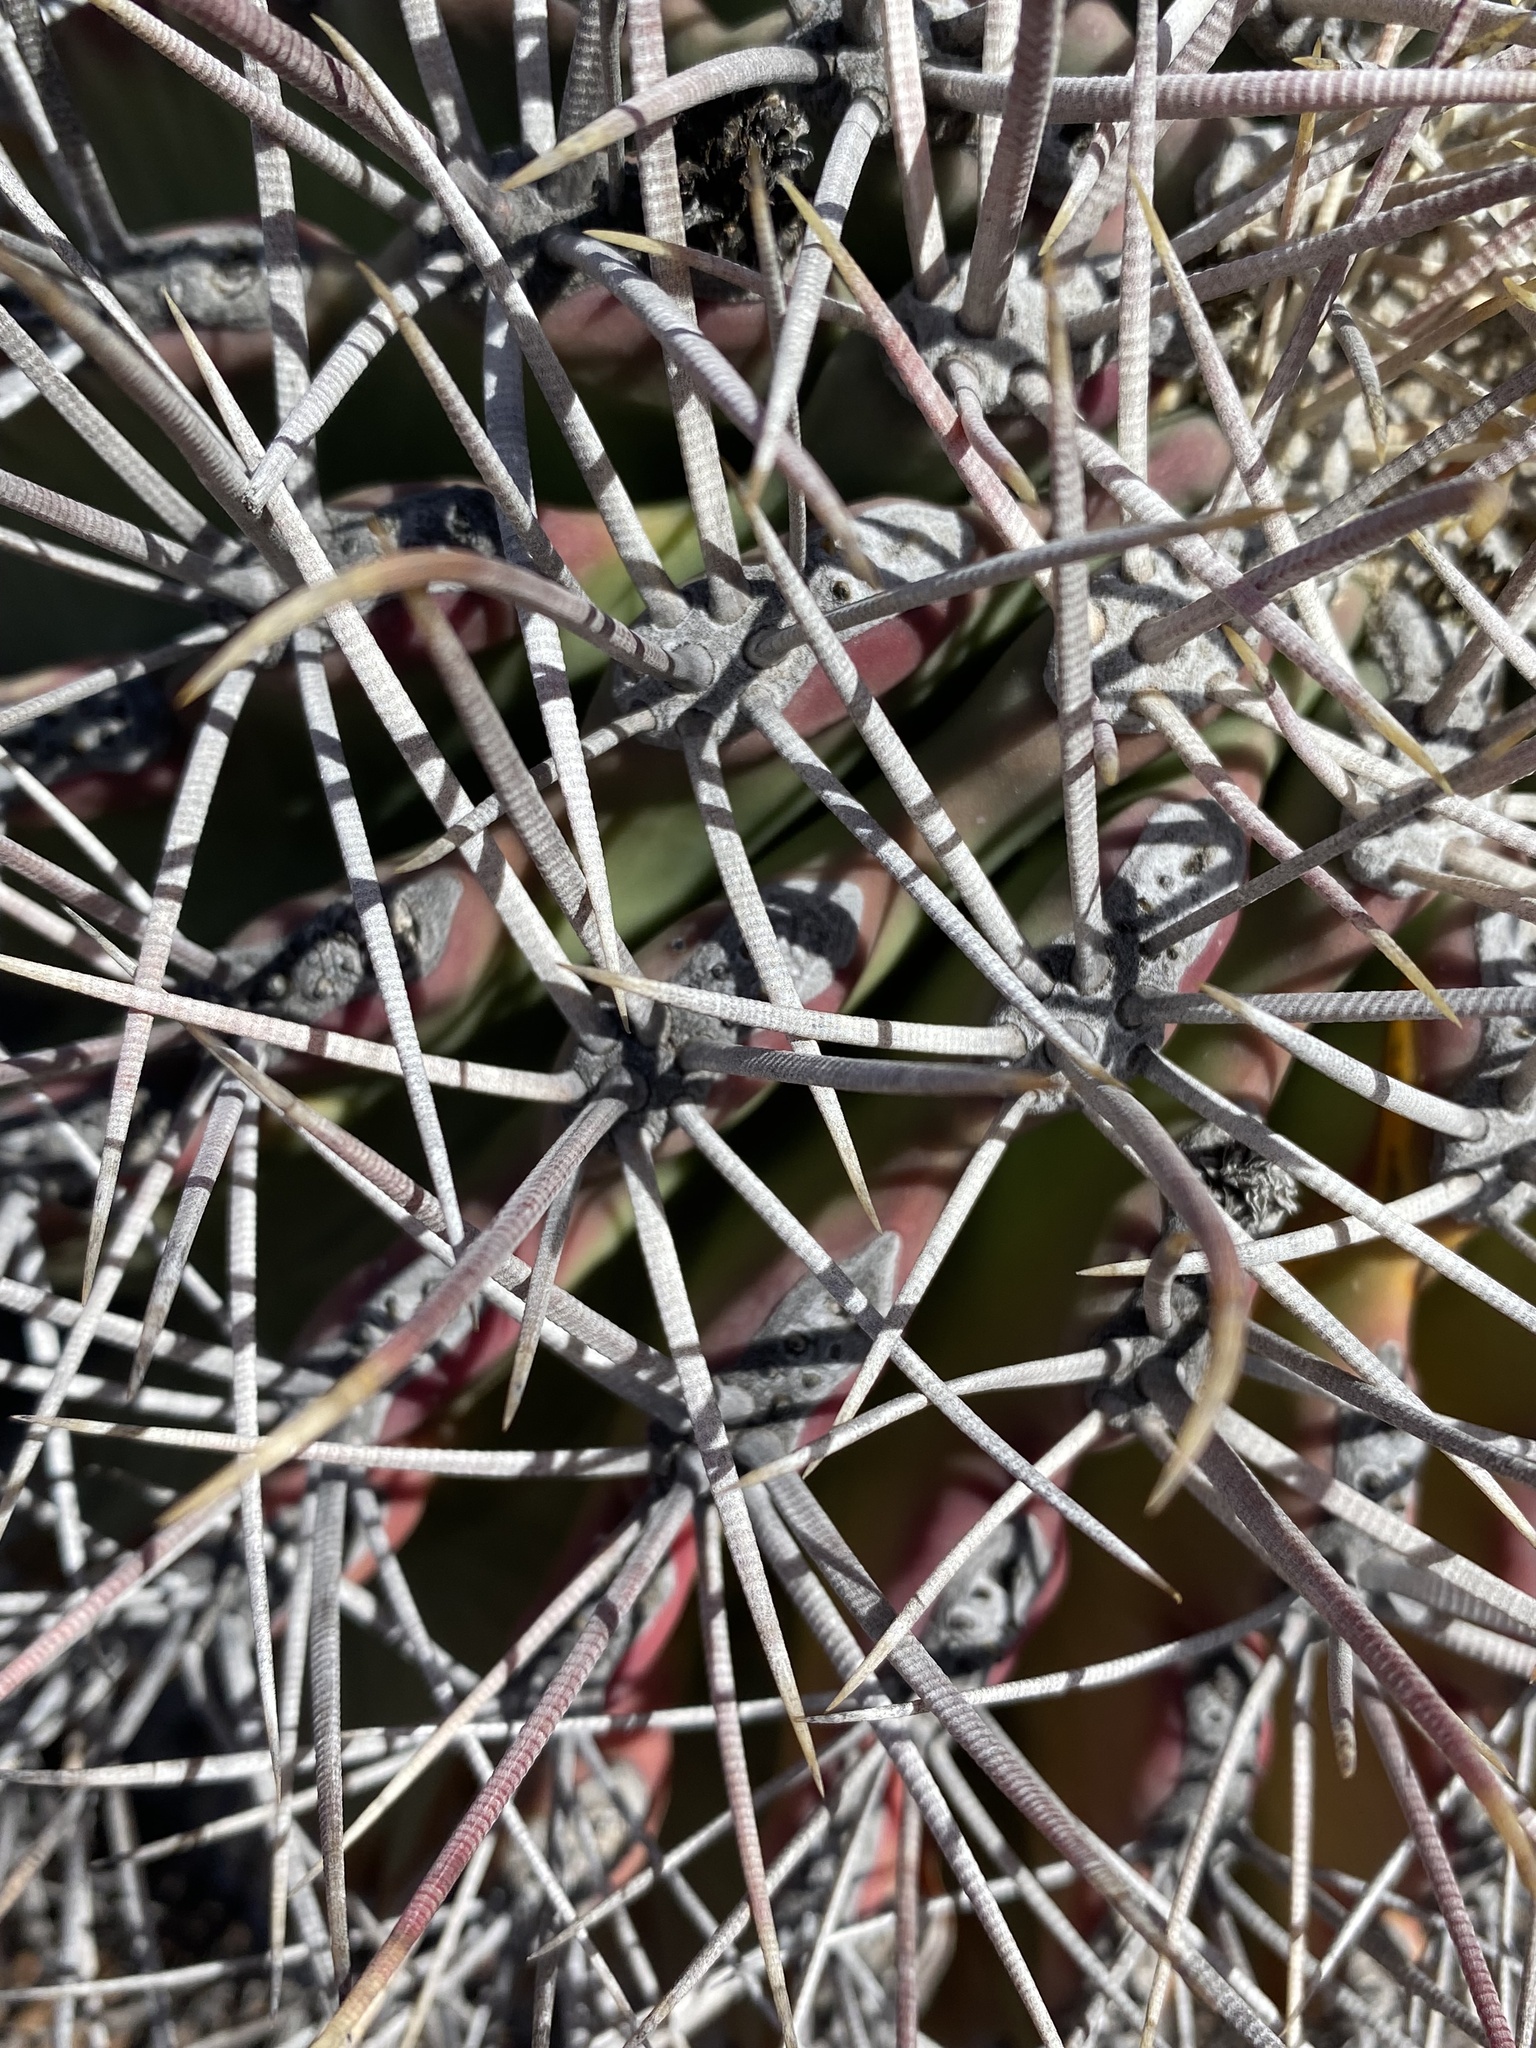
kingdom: Plantae
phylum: Tracheophyta
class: Magnoliopsida
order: Caryophyllales
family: Cactaceae
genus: Ferocactus
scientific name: Ferocactus emoryi
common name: Emory's barrel cactus
